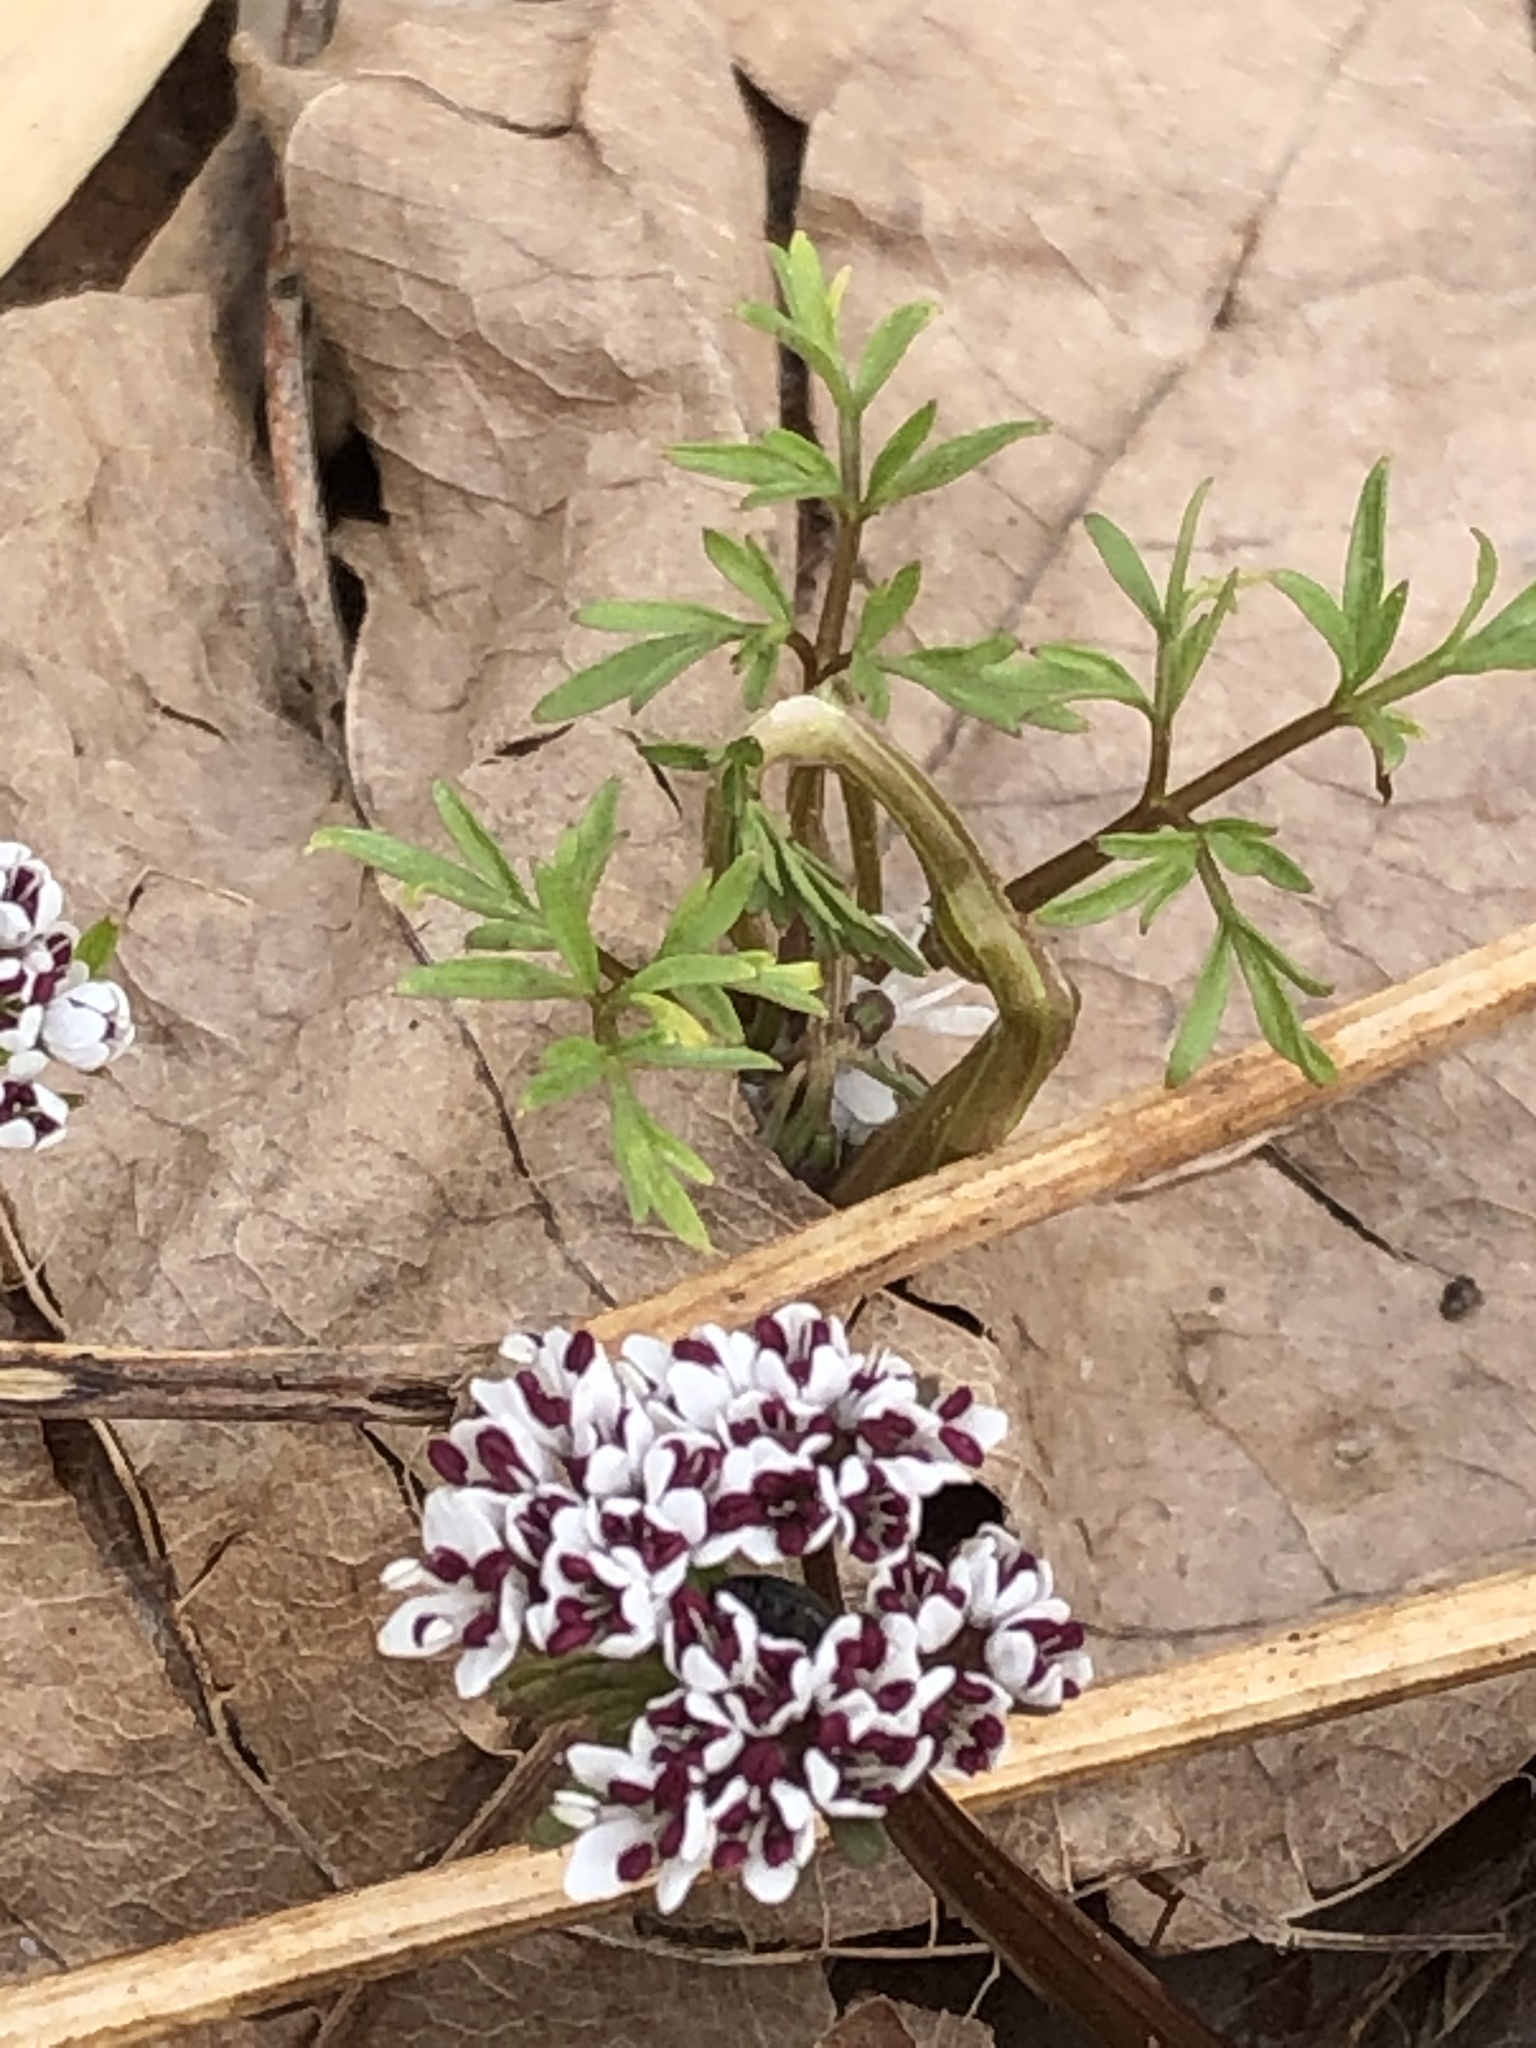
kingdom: Plantae
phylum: Tracheophyta
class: Magnoliopsida
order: Apiales
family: Apiaceae
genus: Erigenia
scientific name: Erigenia bulbosa
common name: Pepper-and-salt
